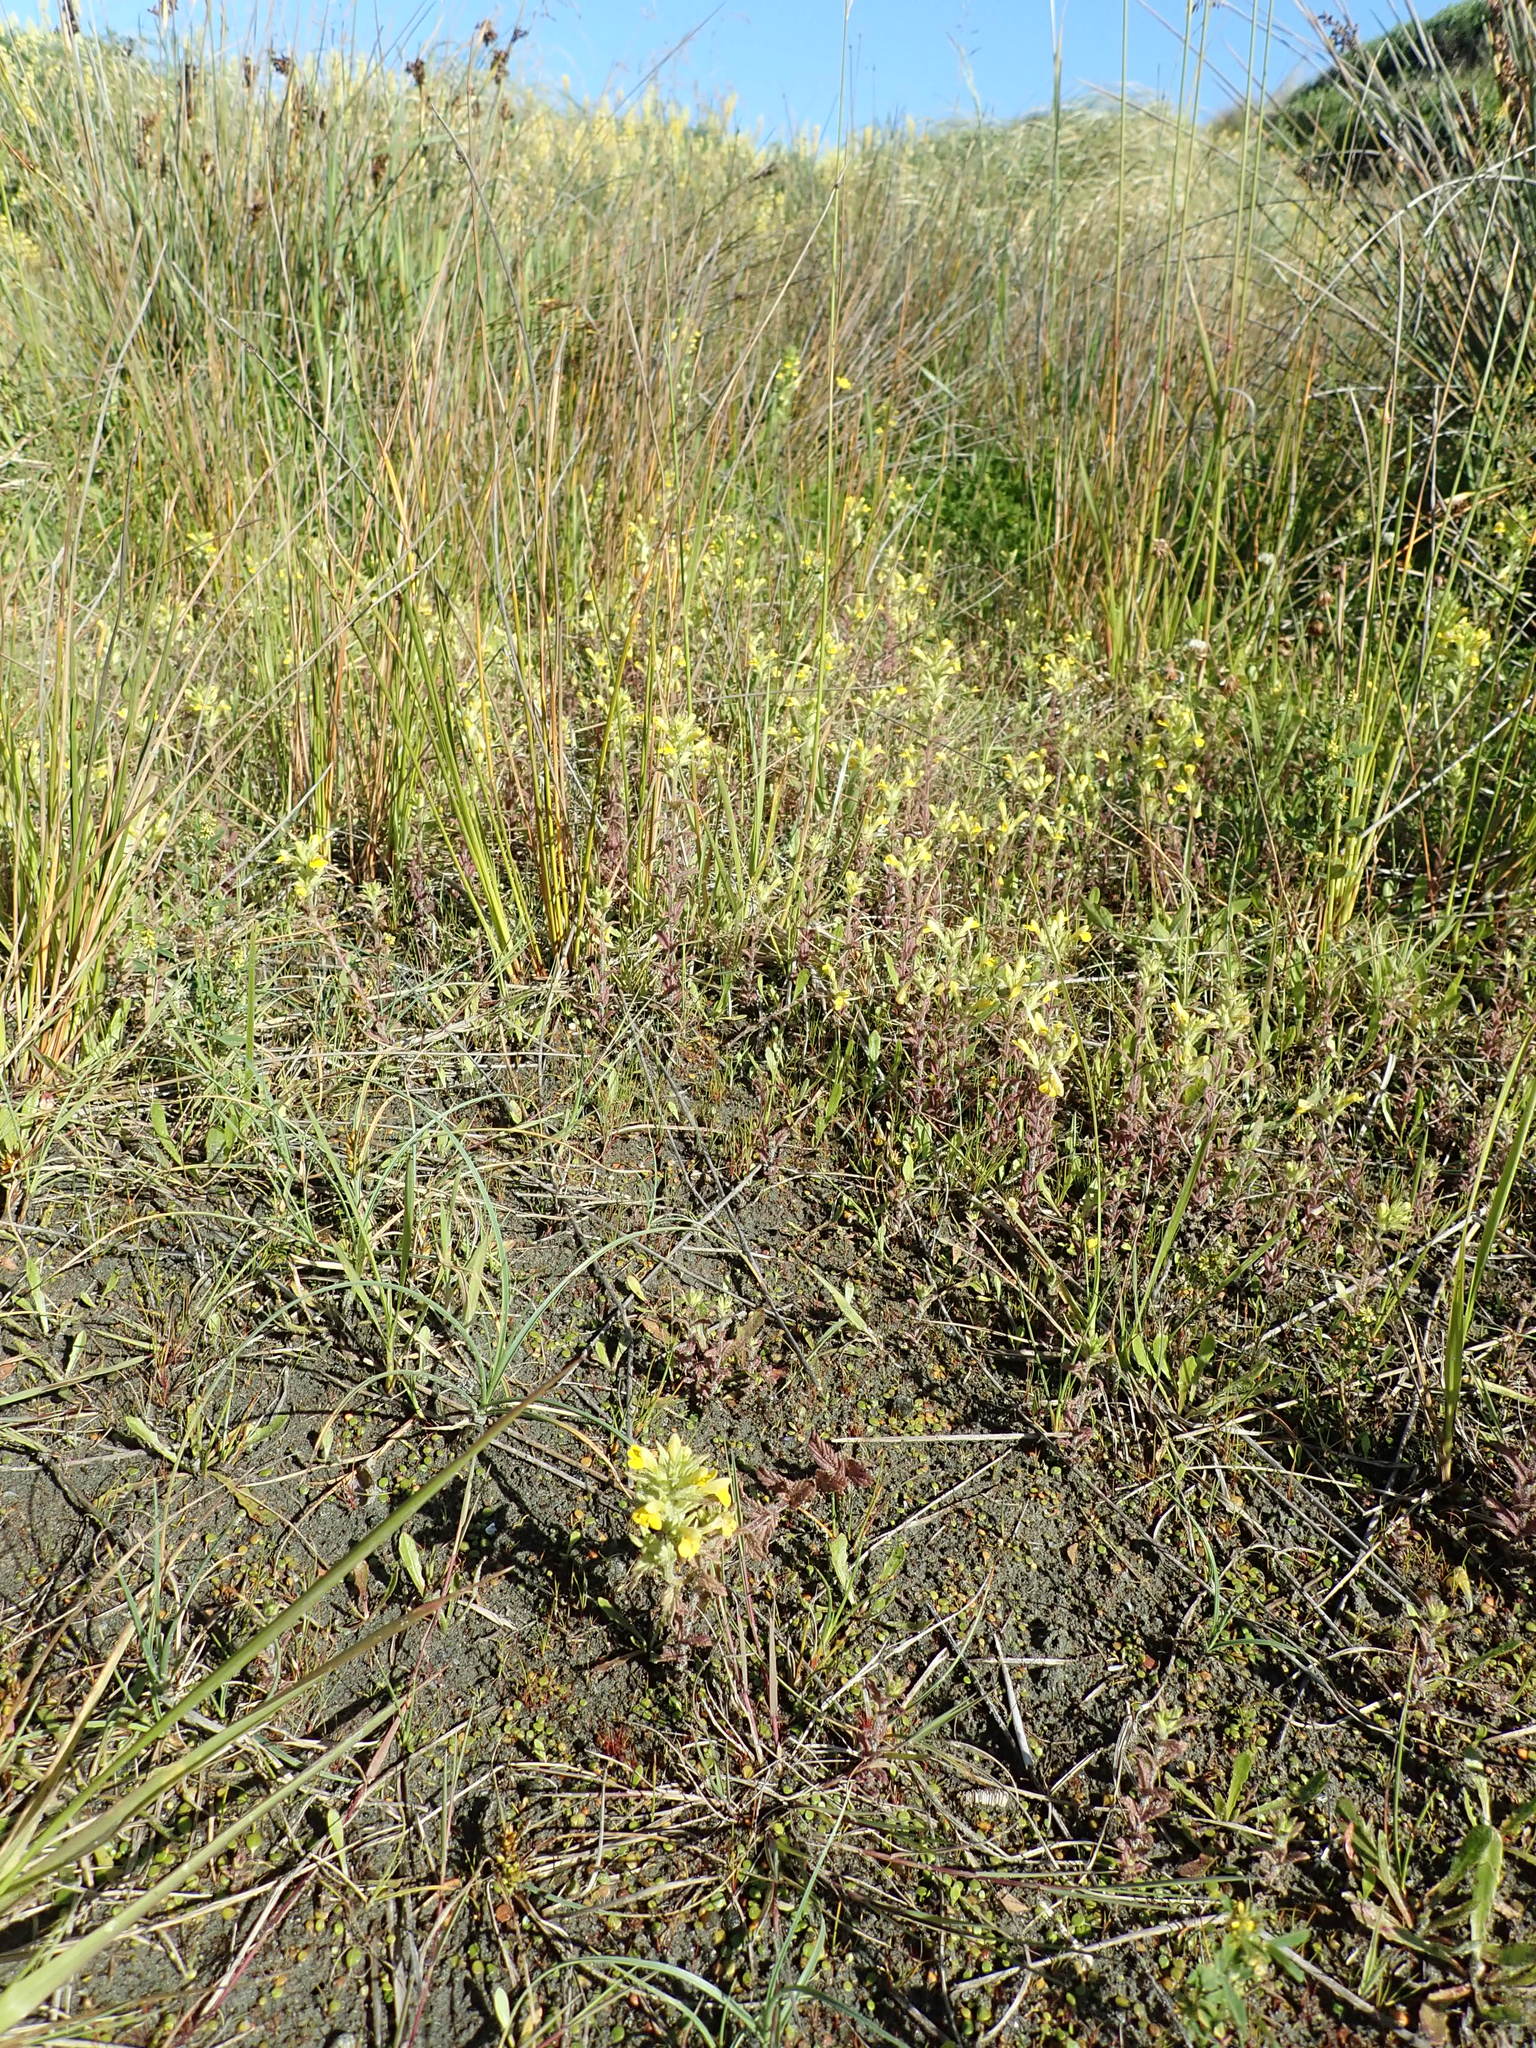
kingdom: Plantae
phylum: Tracheophyta
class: Magnoliopsida
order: Lamiales
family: Orobanchaceae
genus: Bellardia
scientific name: Bellardia viscosa
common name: Sticky parentucellia
